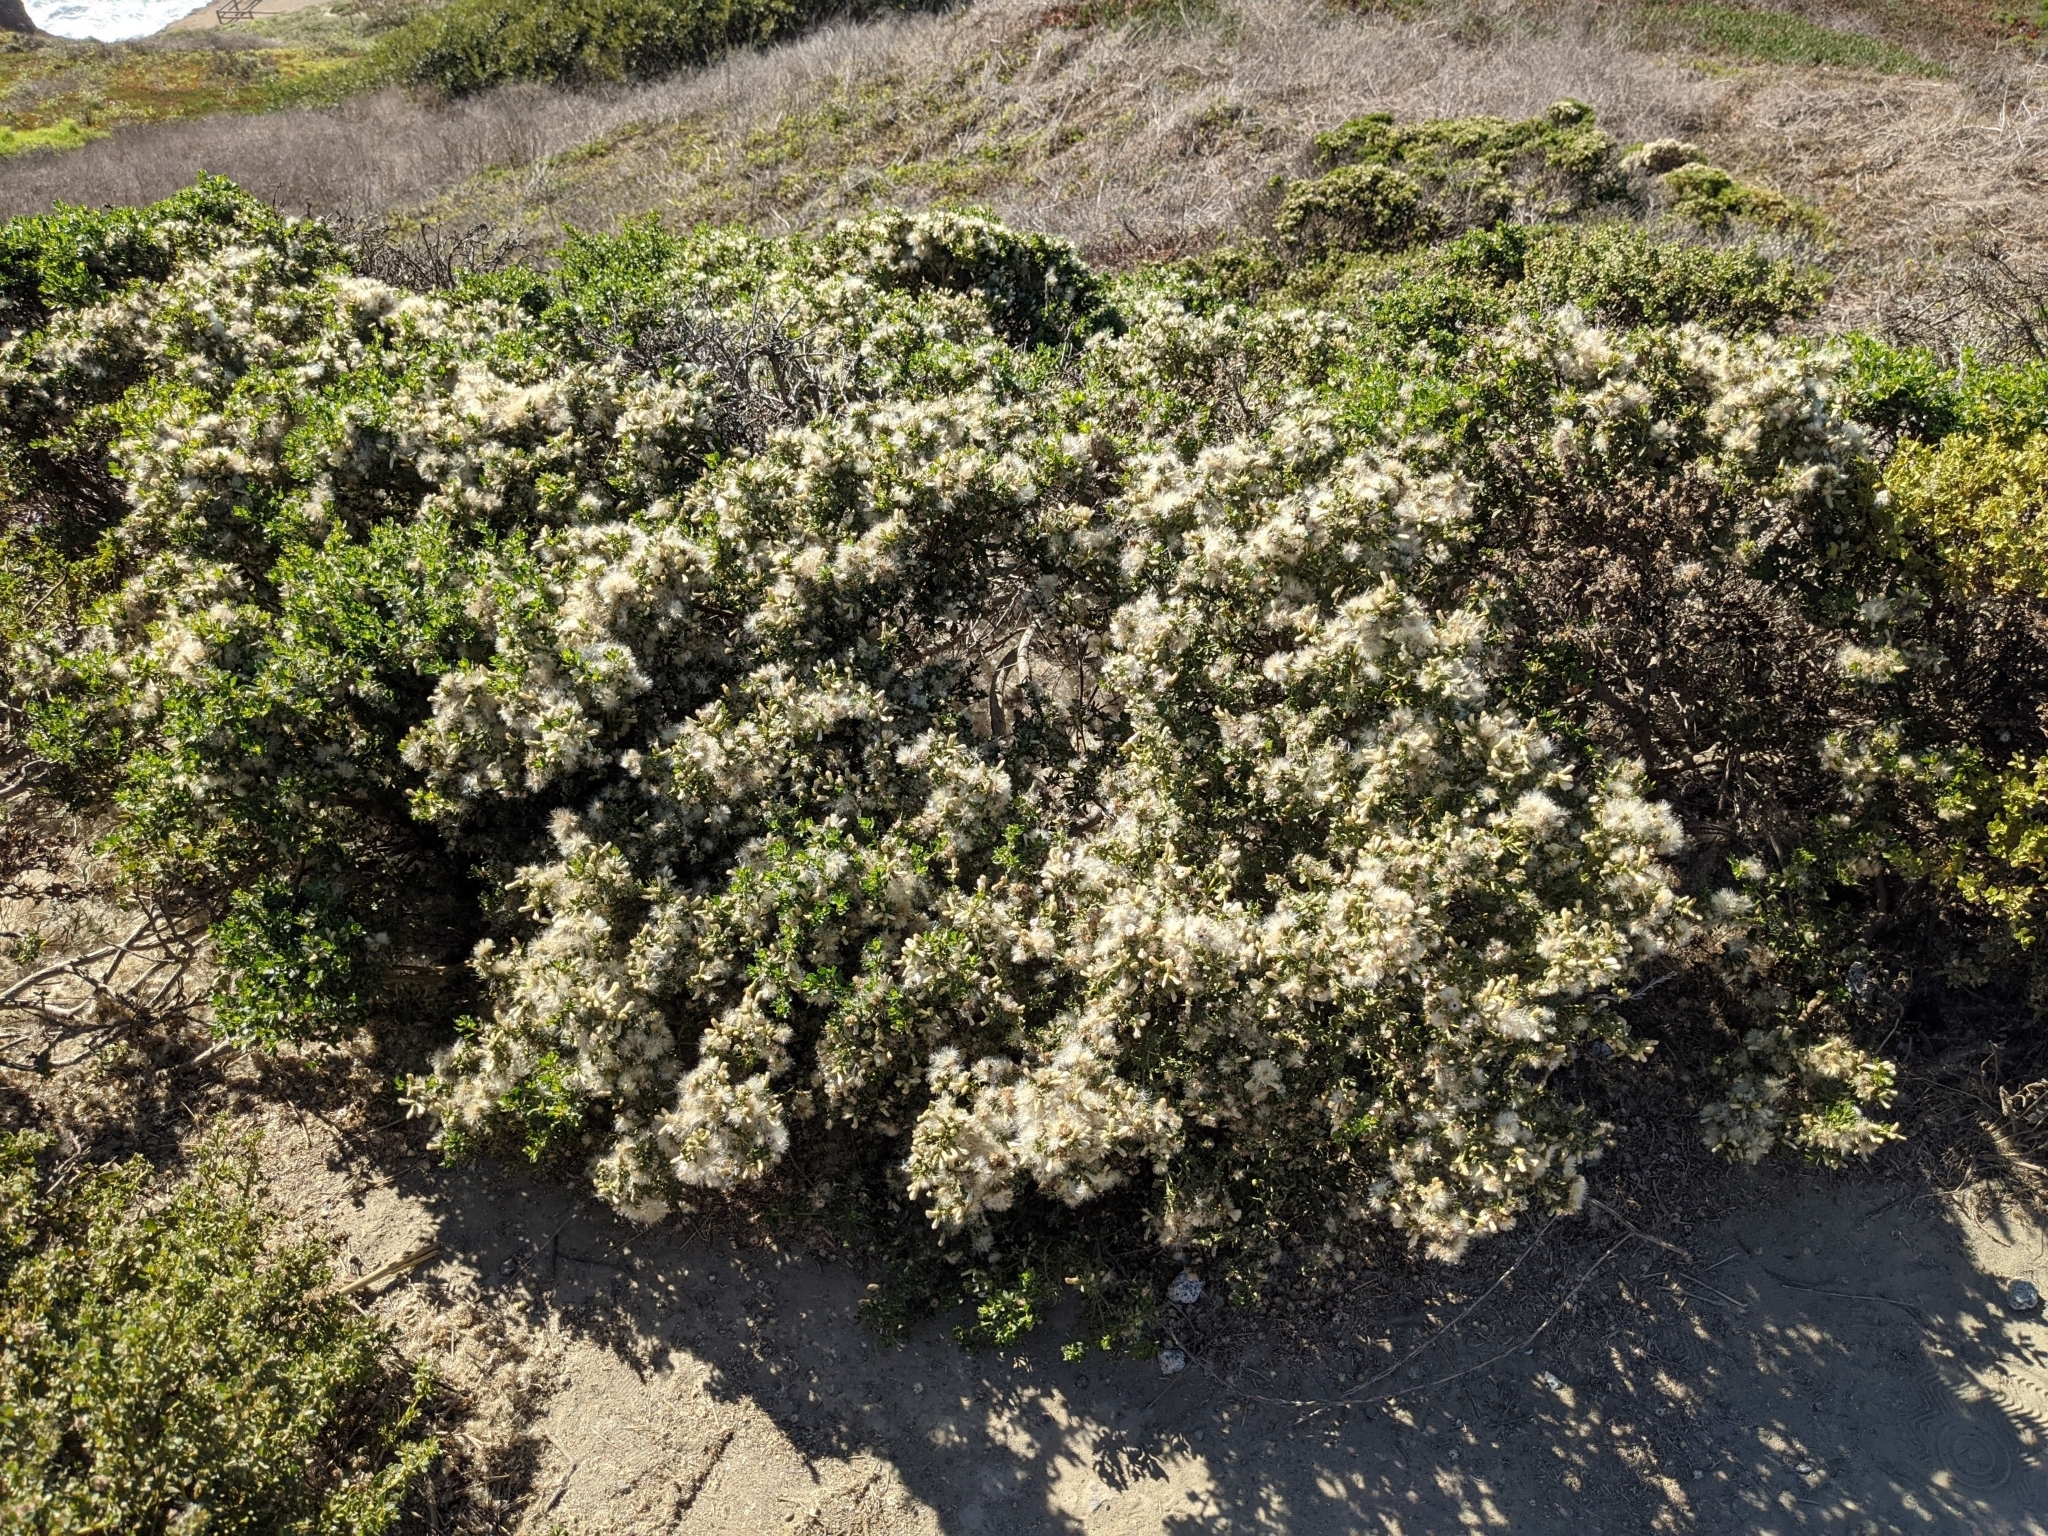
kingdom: Plantae
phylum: Tracheophyta
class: Magnoliopsida
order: Asterales
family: Asteraceae
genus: Baccharis
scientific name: Baccharis pilularis
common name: Coyotebrush
